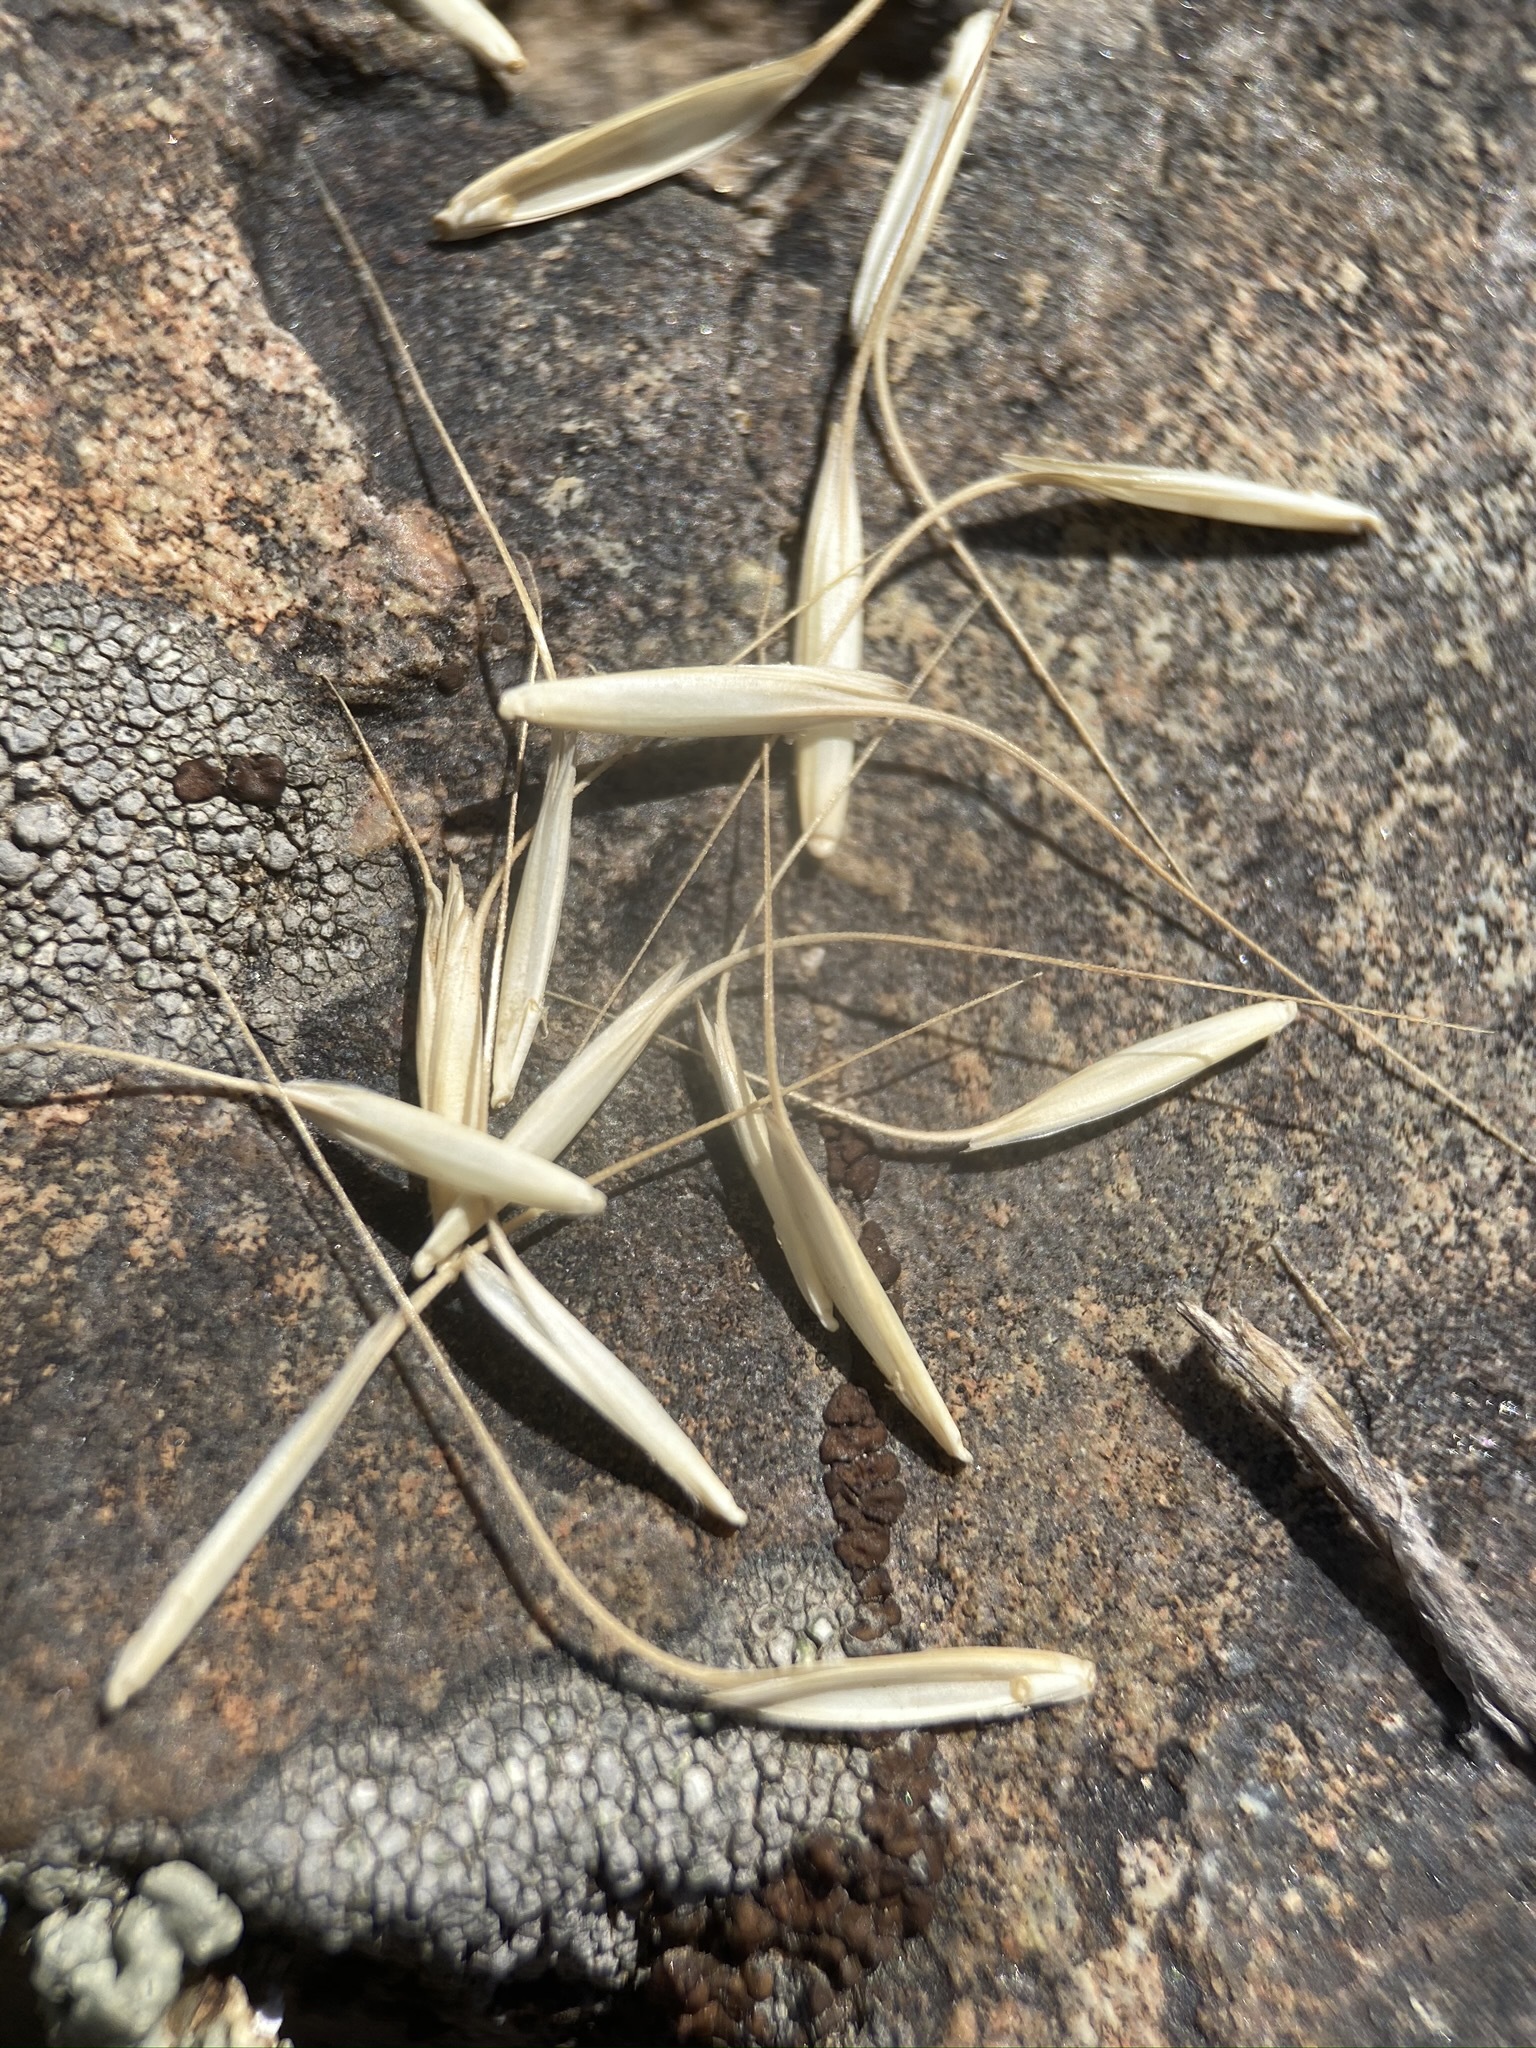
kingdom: Plantae
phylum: Tracheophyta
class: Liliopsida
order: Poales
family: Poaceae
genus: Pseudoroegneria
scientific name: Pseudoroegneria spicata
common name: Bluebunch wheatgrass
